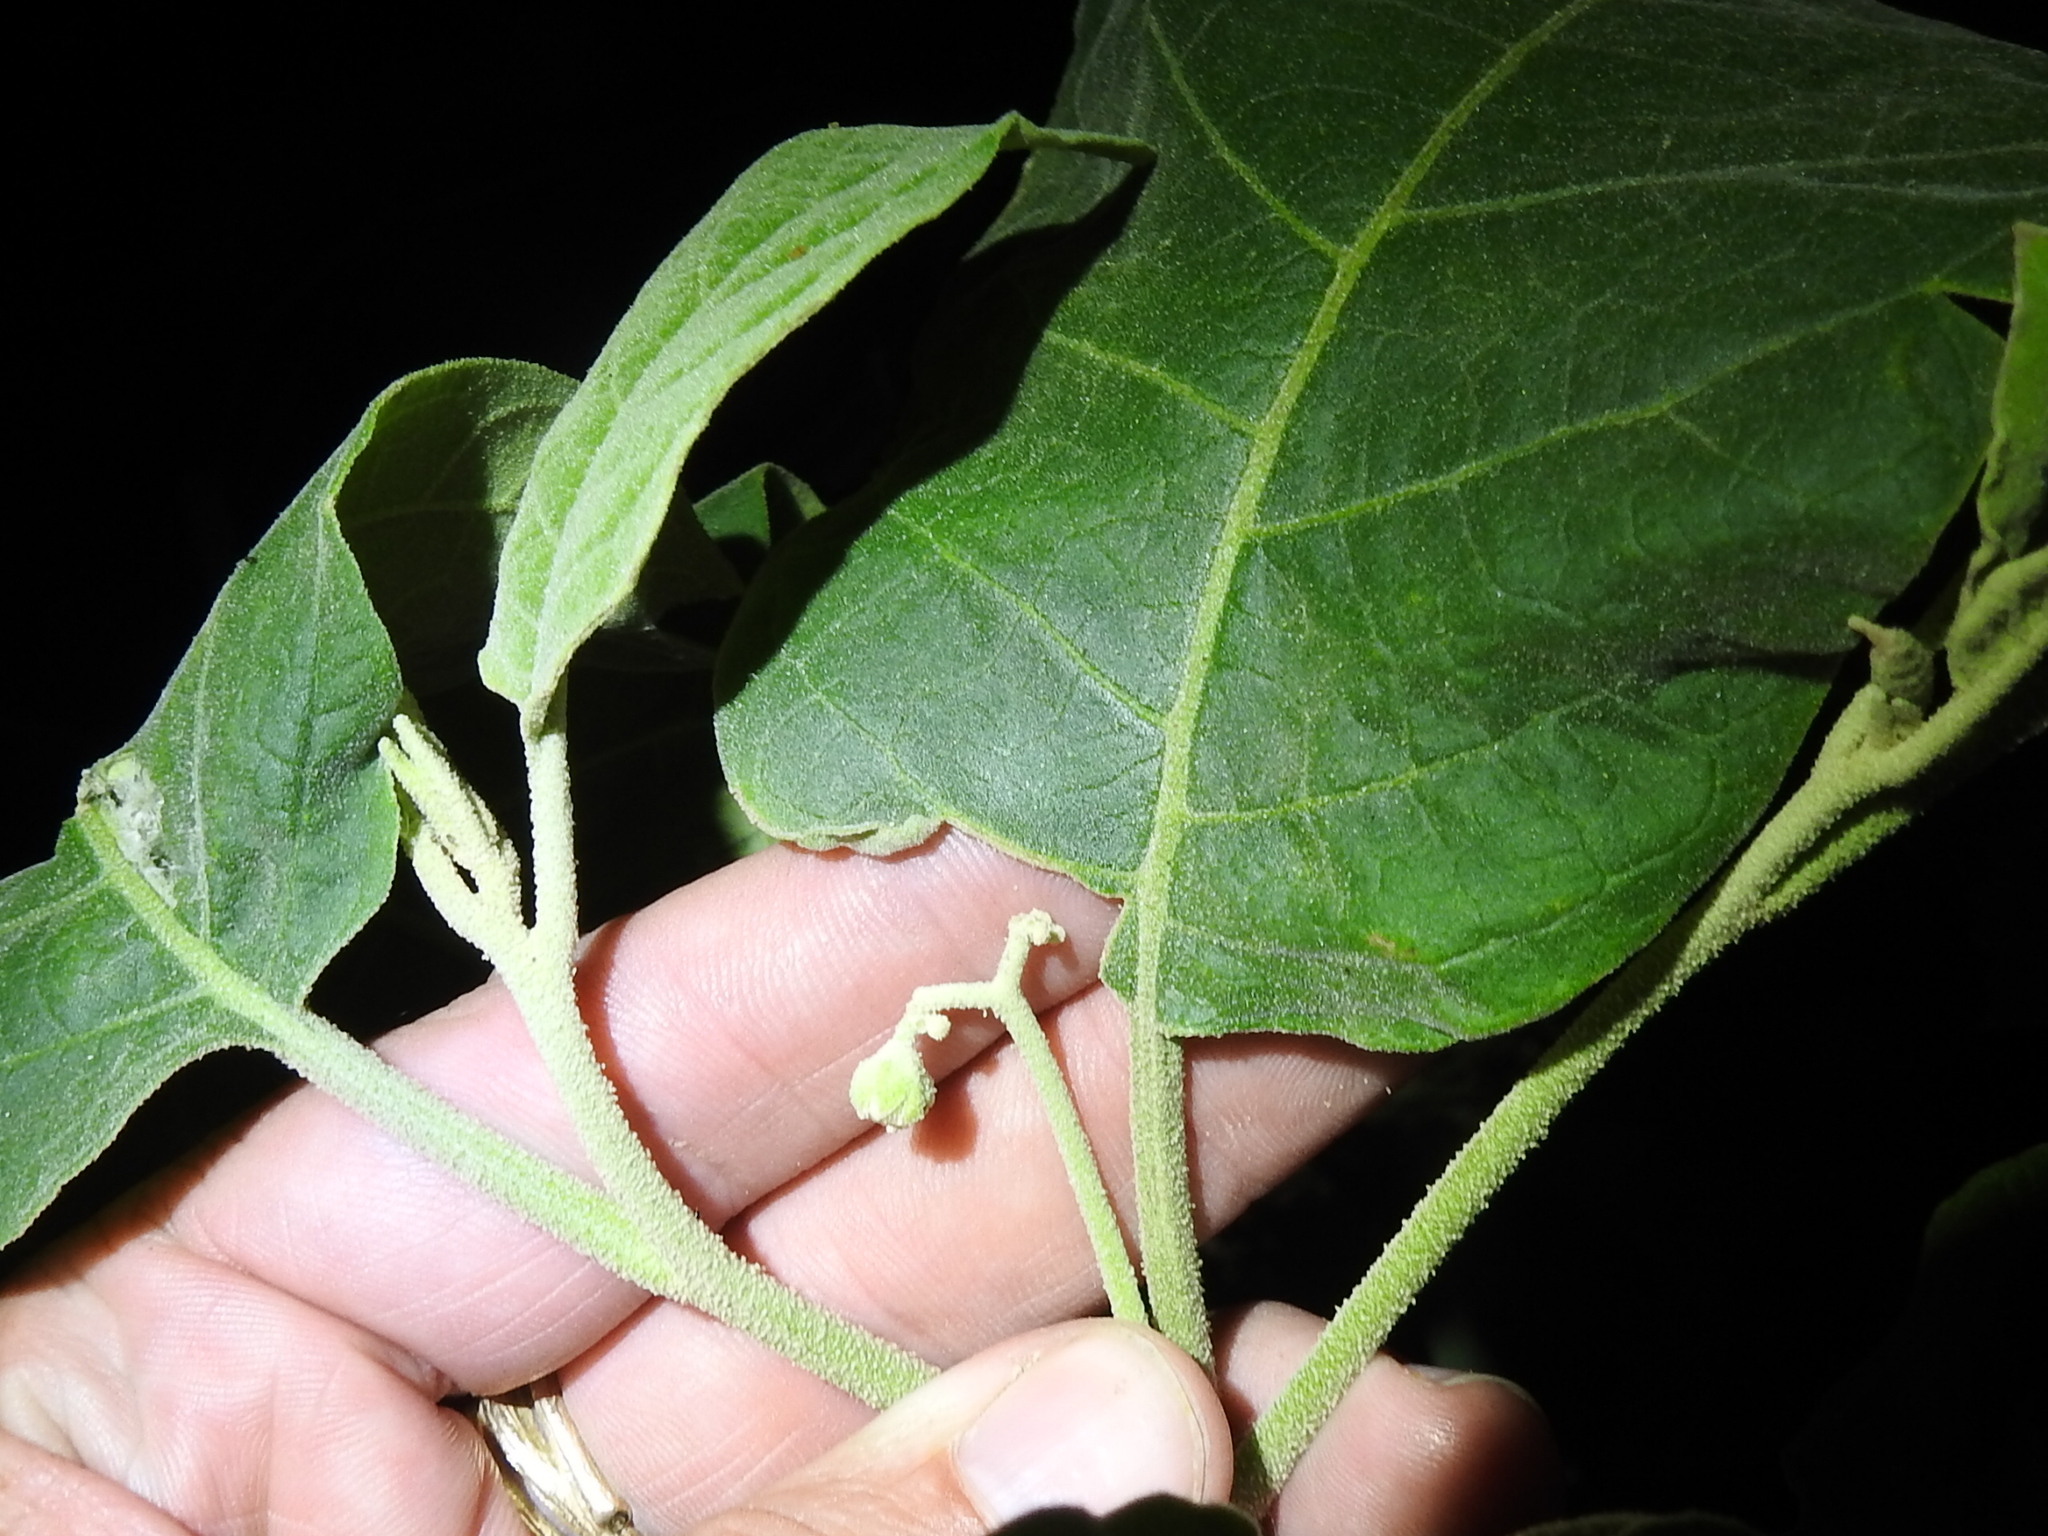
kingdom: Plantae
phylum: Tracheophyta
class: Magnoliopsida
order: Solanales
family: Solanaceae
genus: Solanum
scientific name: Solanum erianthum
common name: Tobacco-tree
